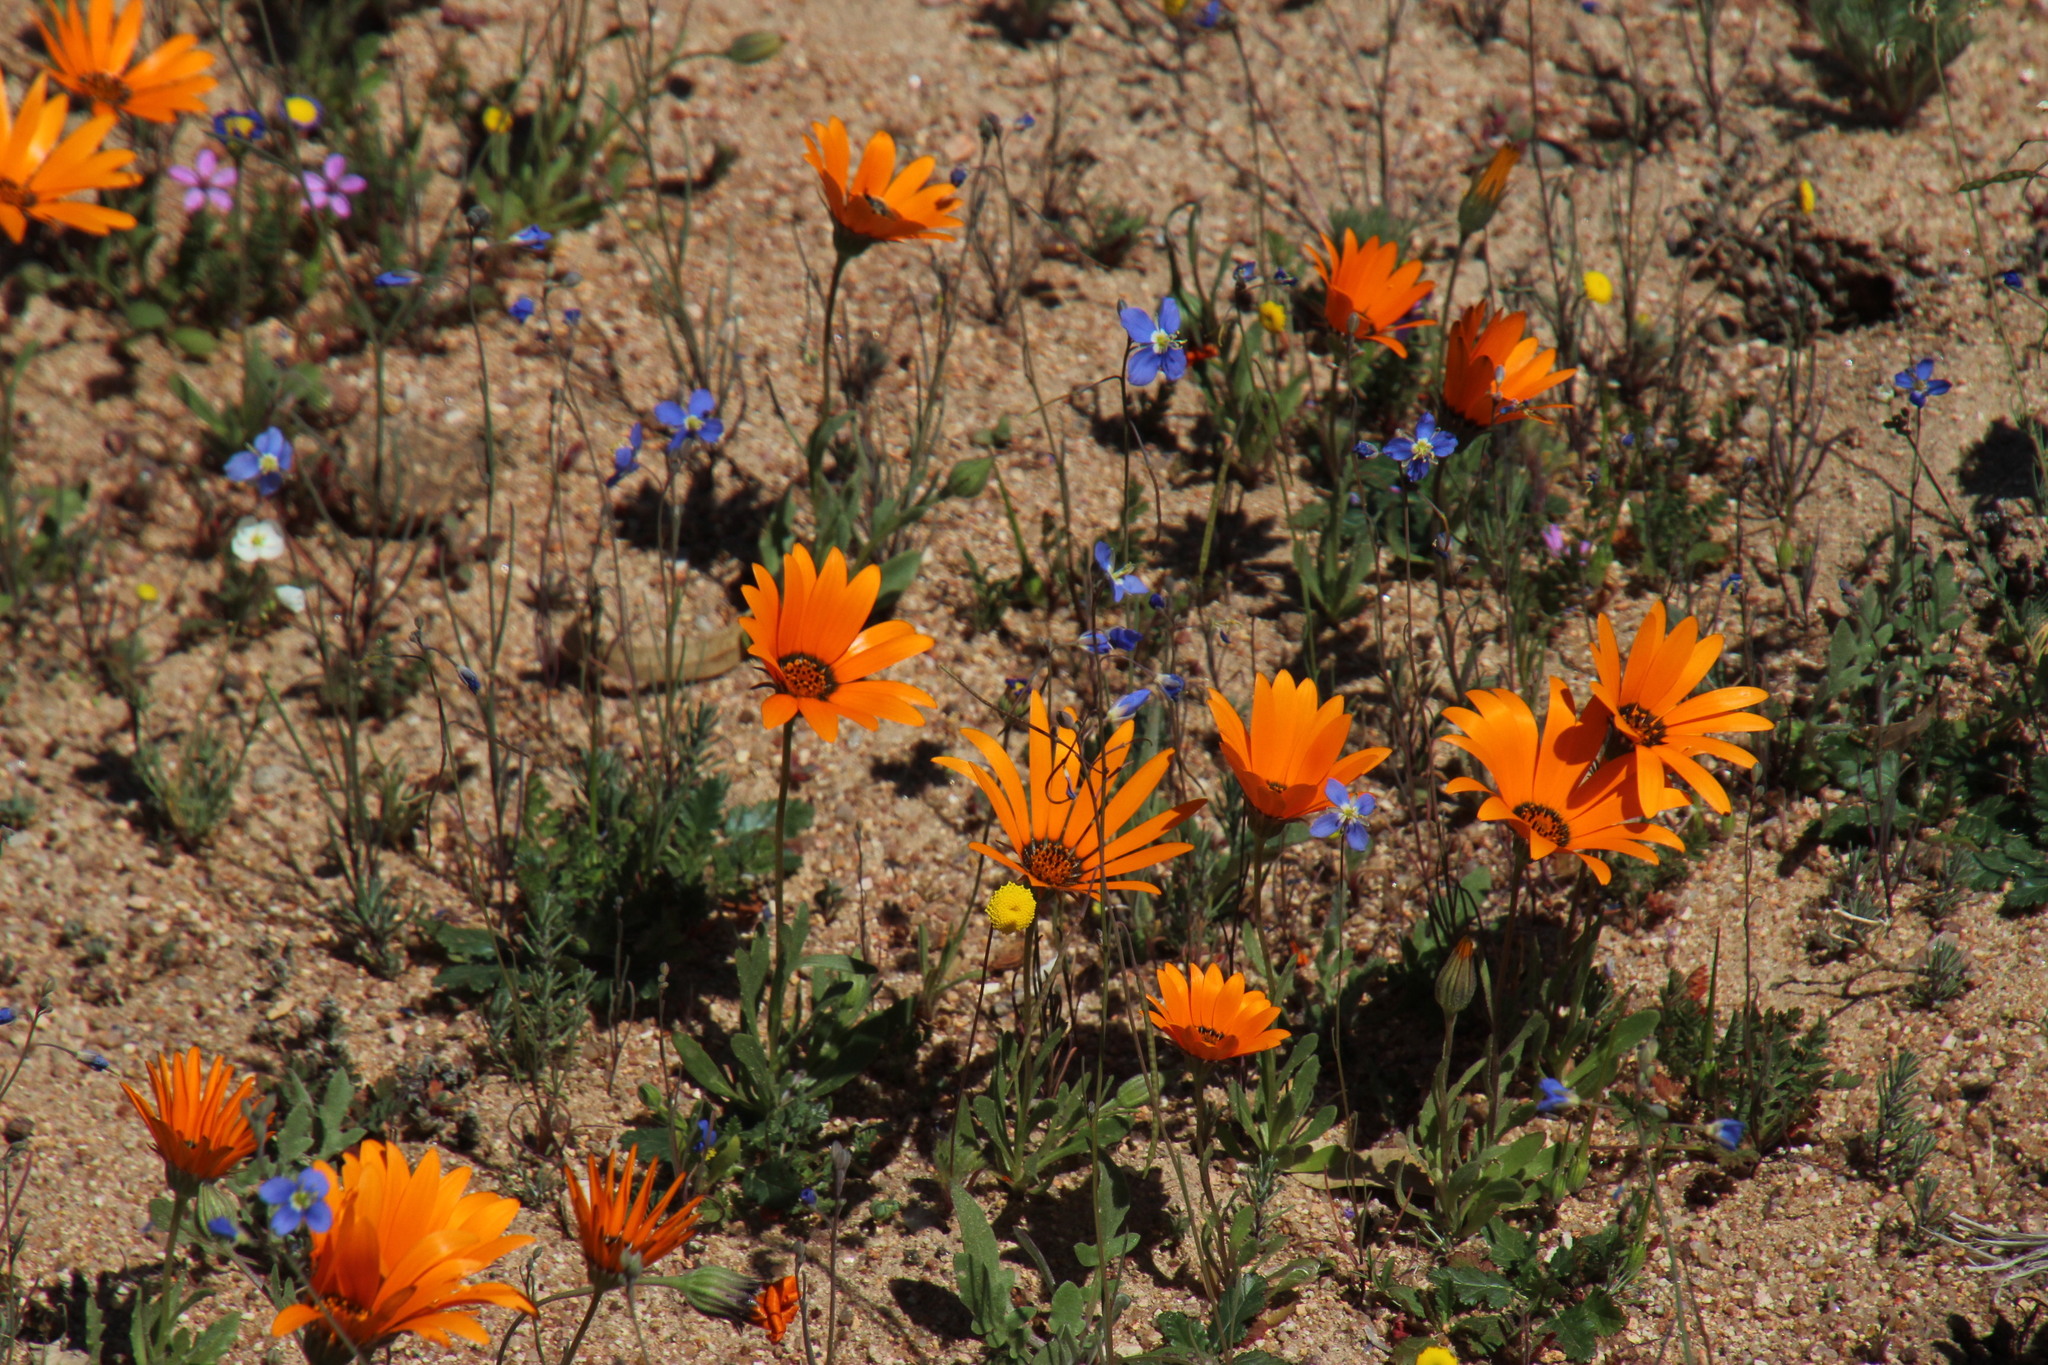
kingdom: Plantae
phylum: Tracheophyta
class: Magnoliopsida
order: Asterales
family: Asteraceae
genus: Dimorphotheca
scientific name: Dimorphotheca sinuata
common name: Glandular cape marigold
